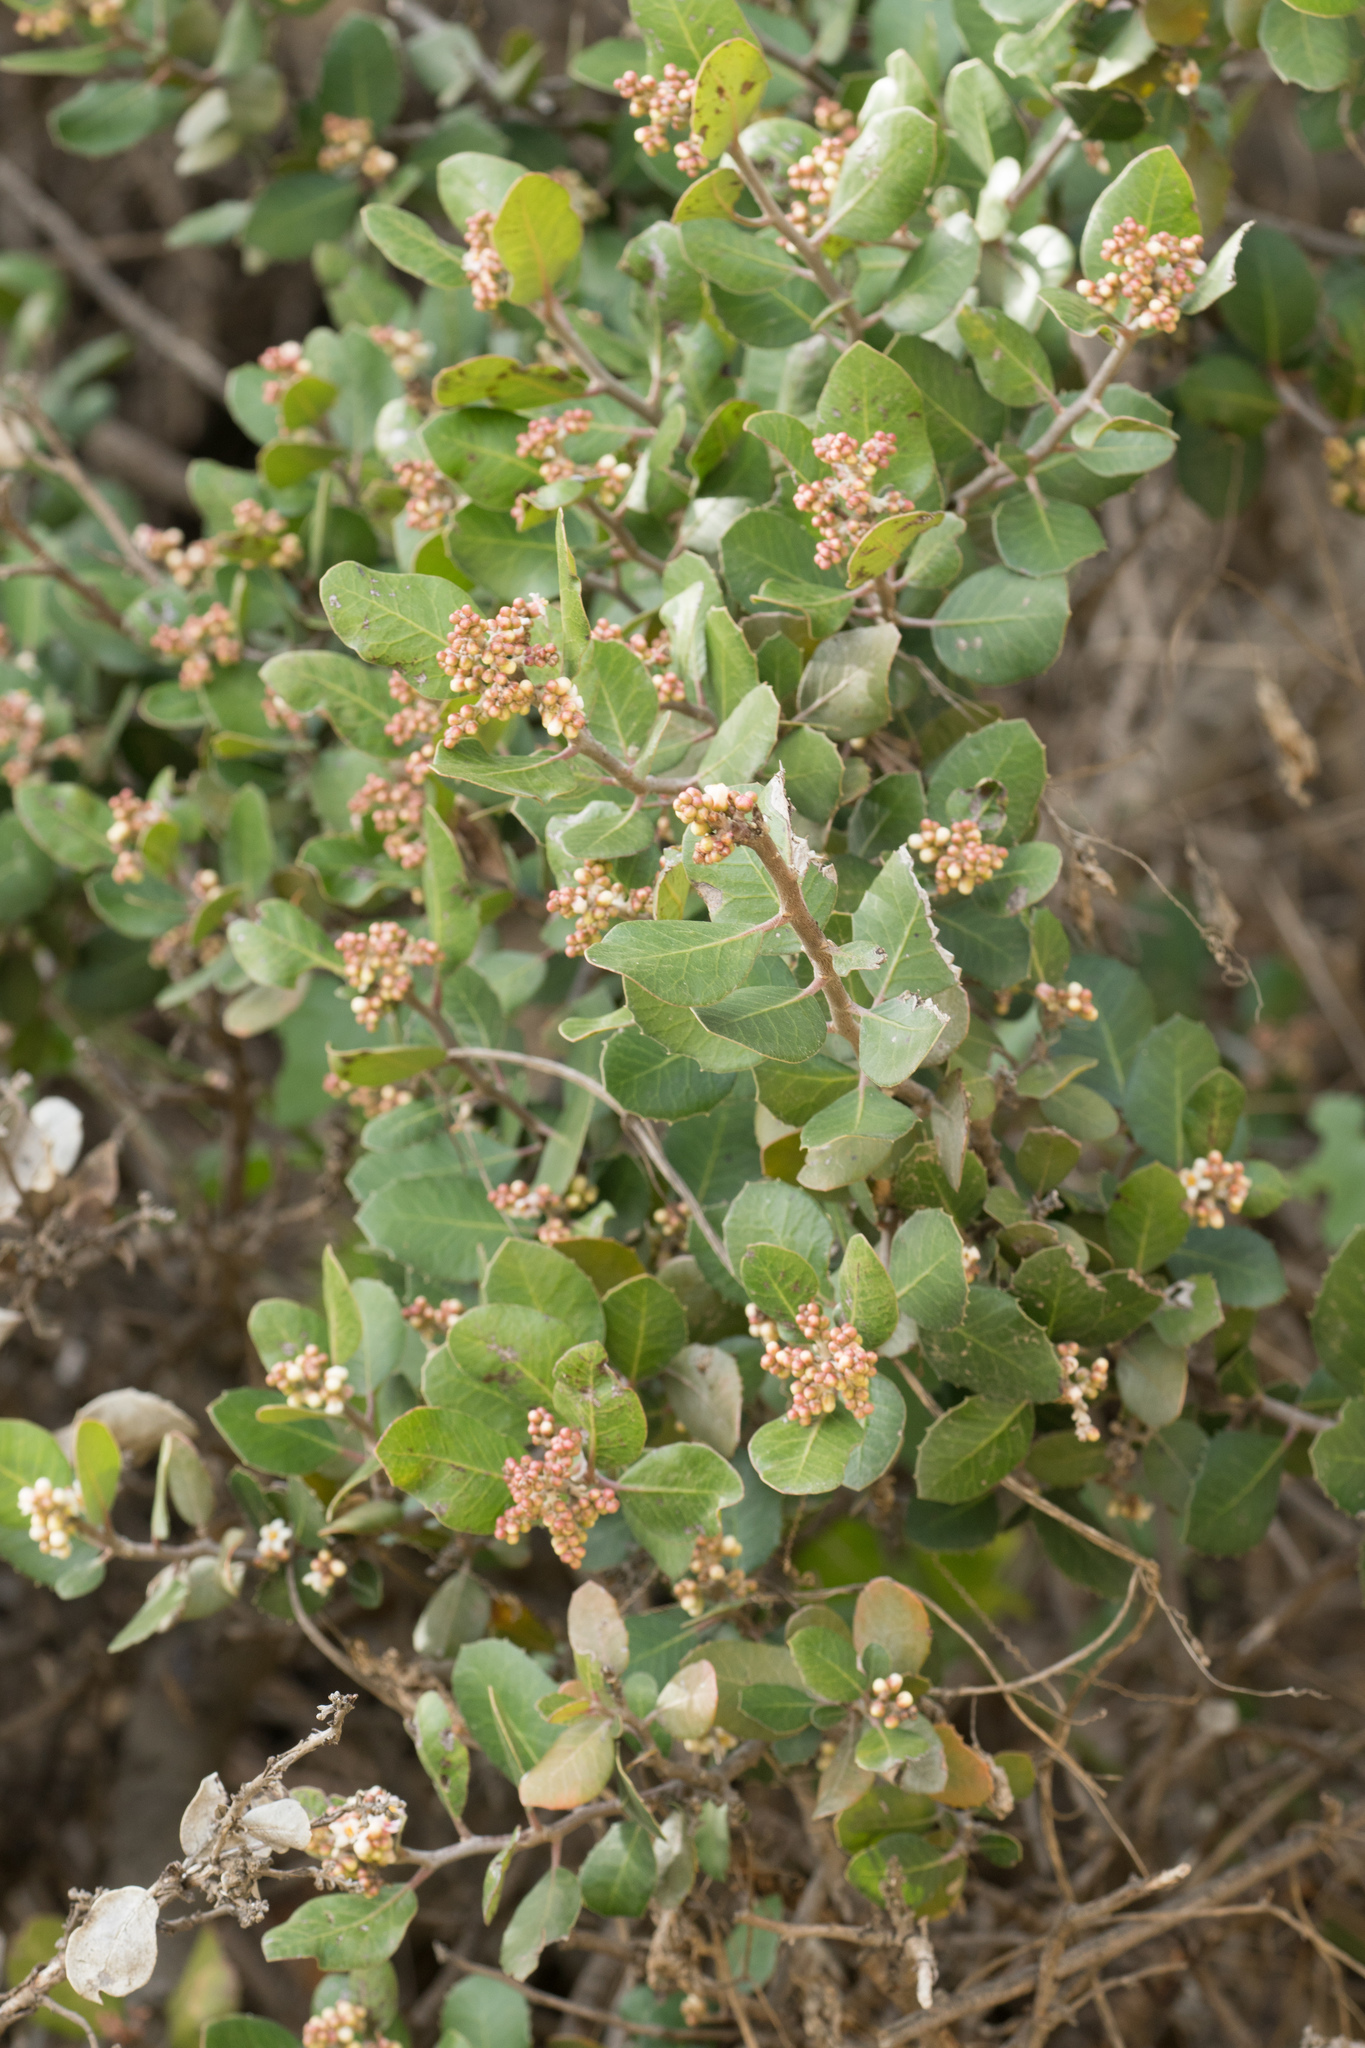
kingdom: Plantae
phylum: Tracheophyta
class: Magnoliopsida
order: Sapindales
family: Anacardiaceae
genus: Rhus
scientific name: Rhus integrifolia
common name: Lemonade sumac
